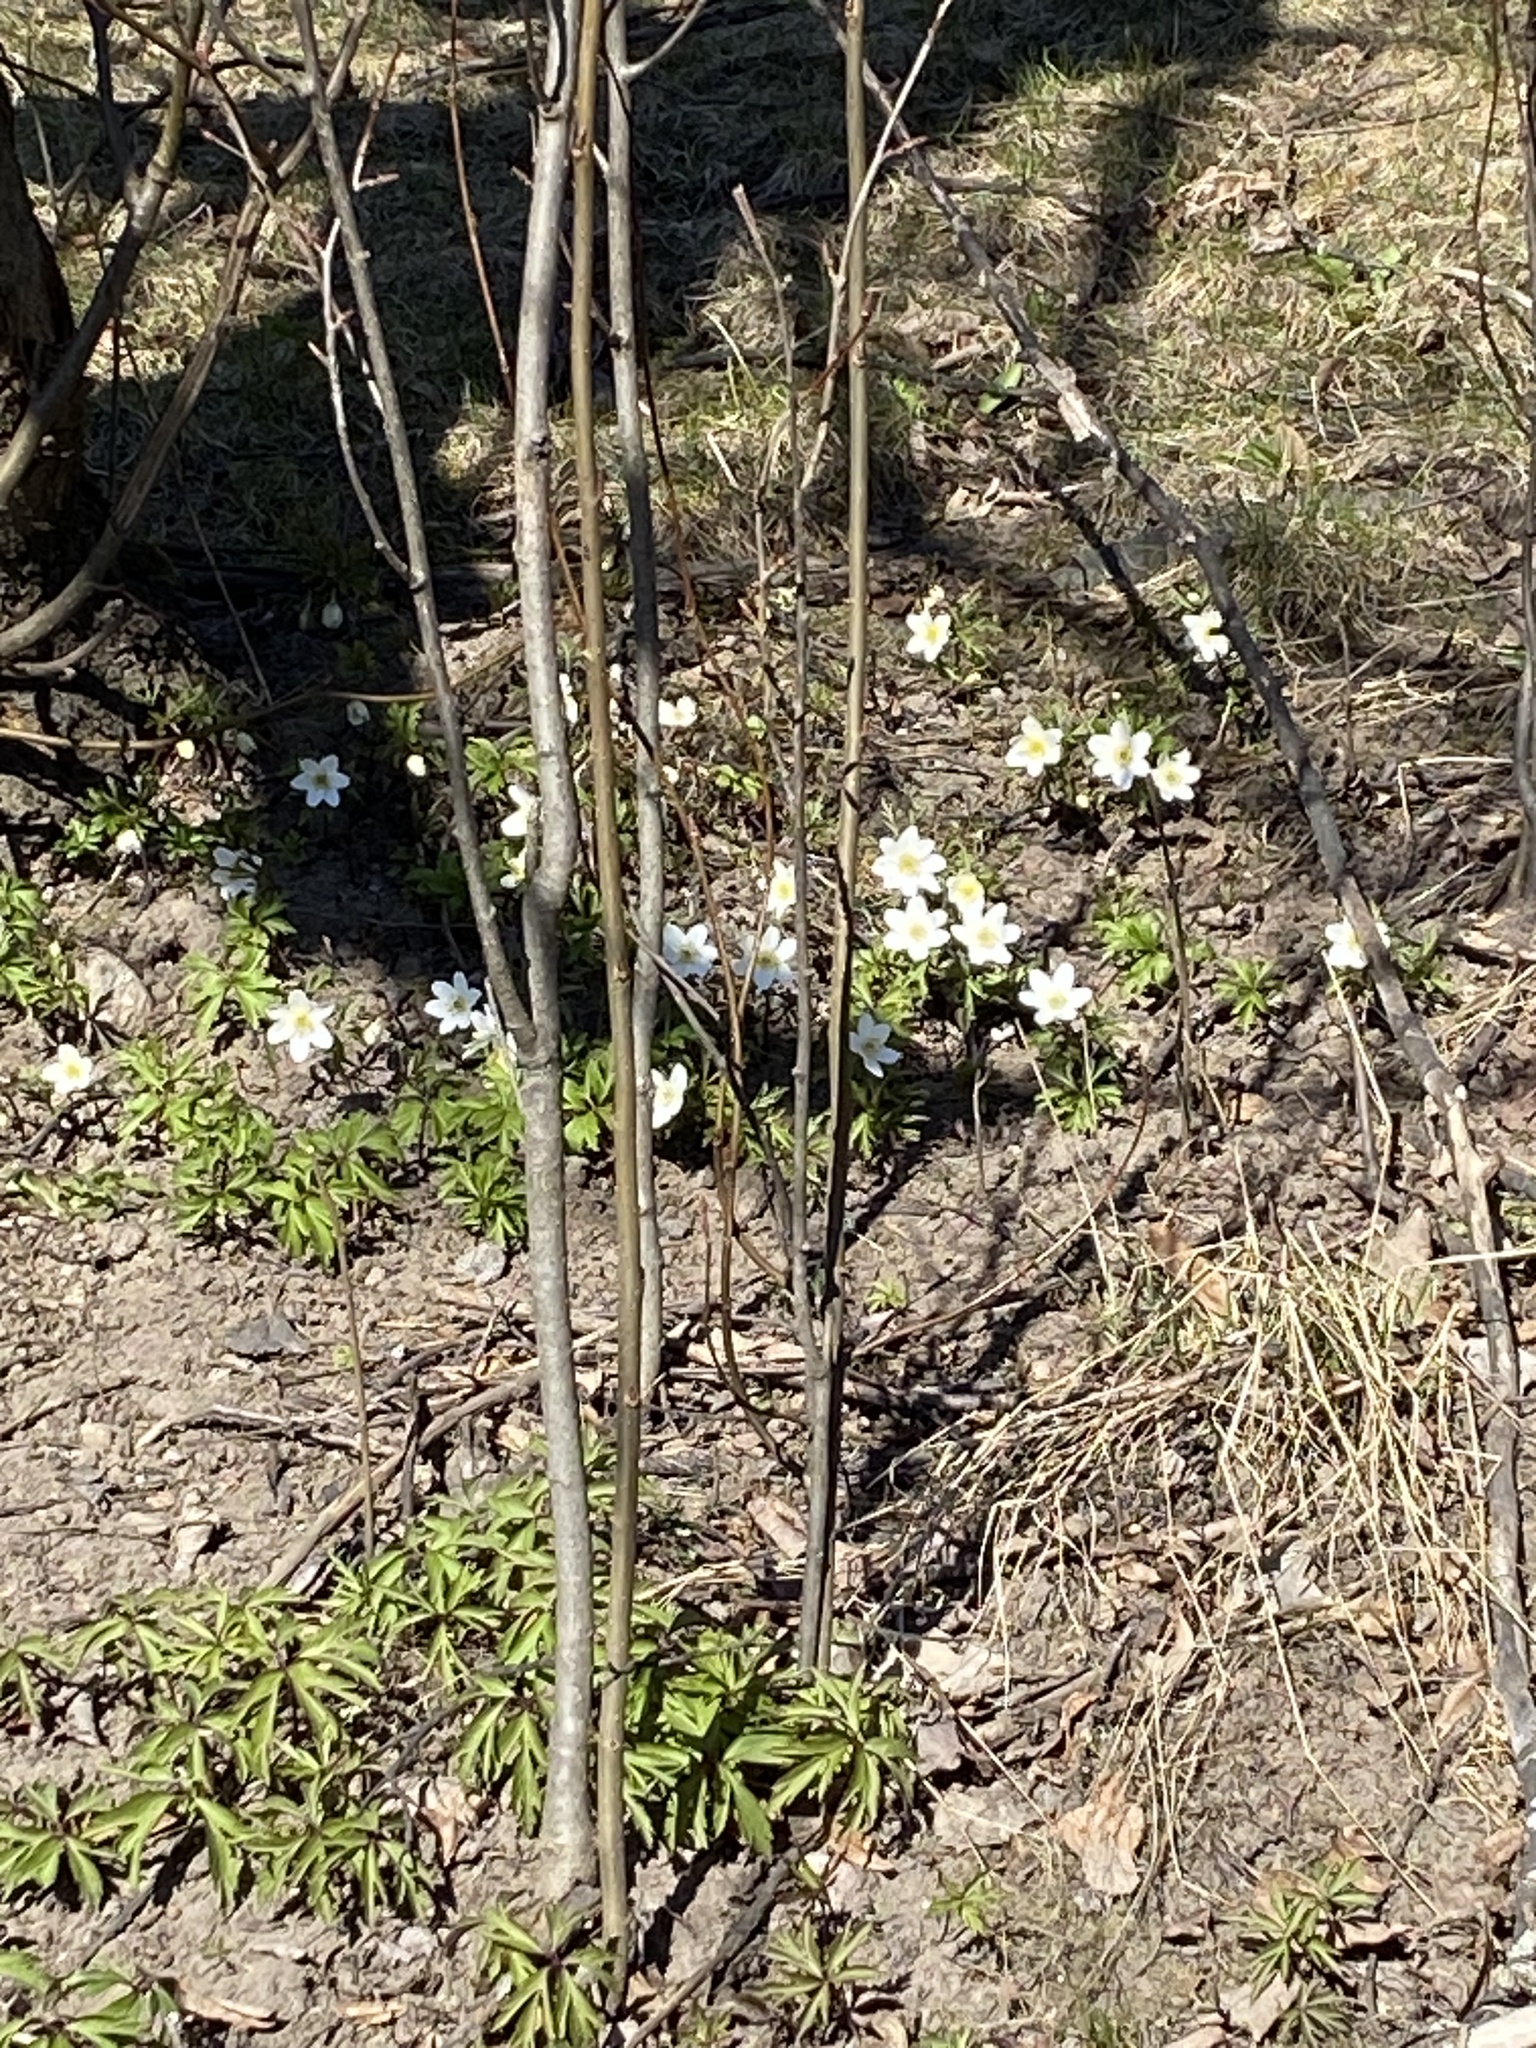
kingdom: Plantae
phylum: Tracheophyta
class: Magnoliopsida
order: Ranunculales
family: Ranunculaceae
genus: Anemone
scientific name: Anemone nemorosa
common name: Wood anemone
